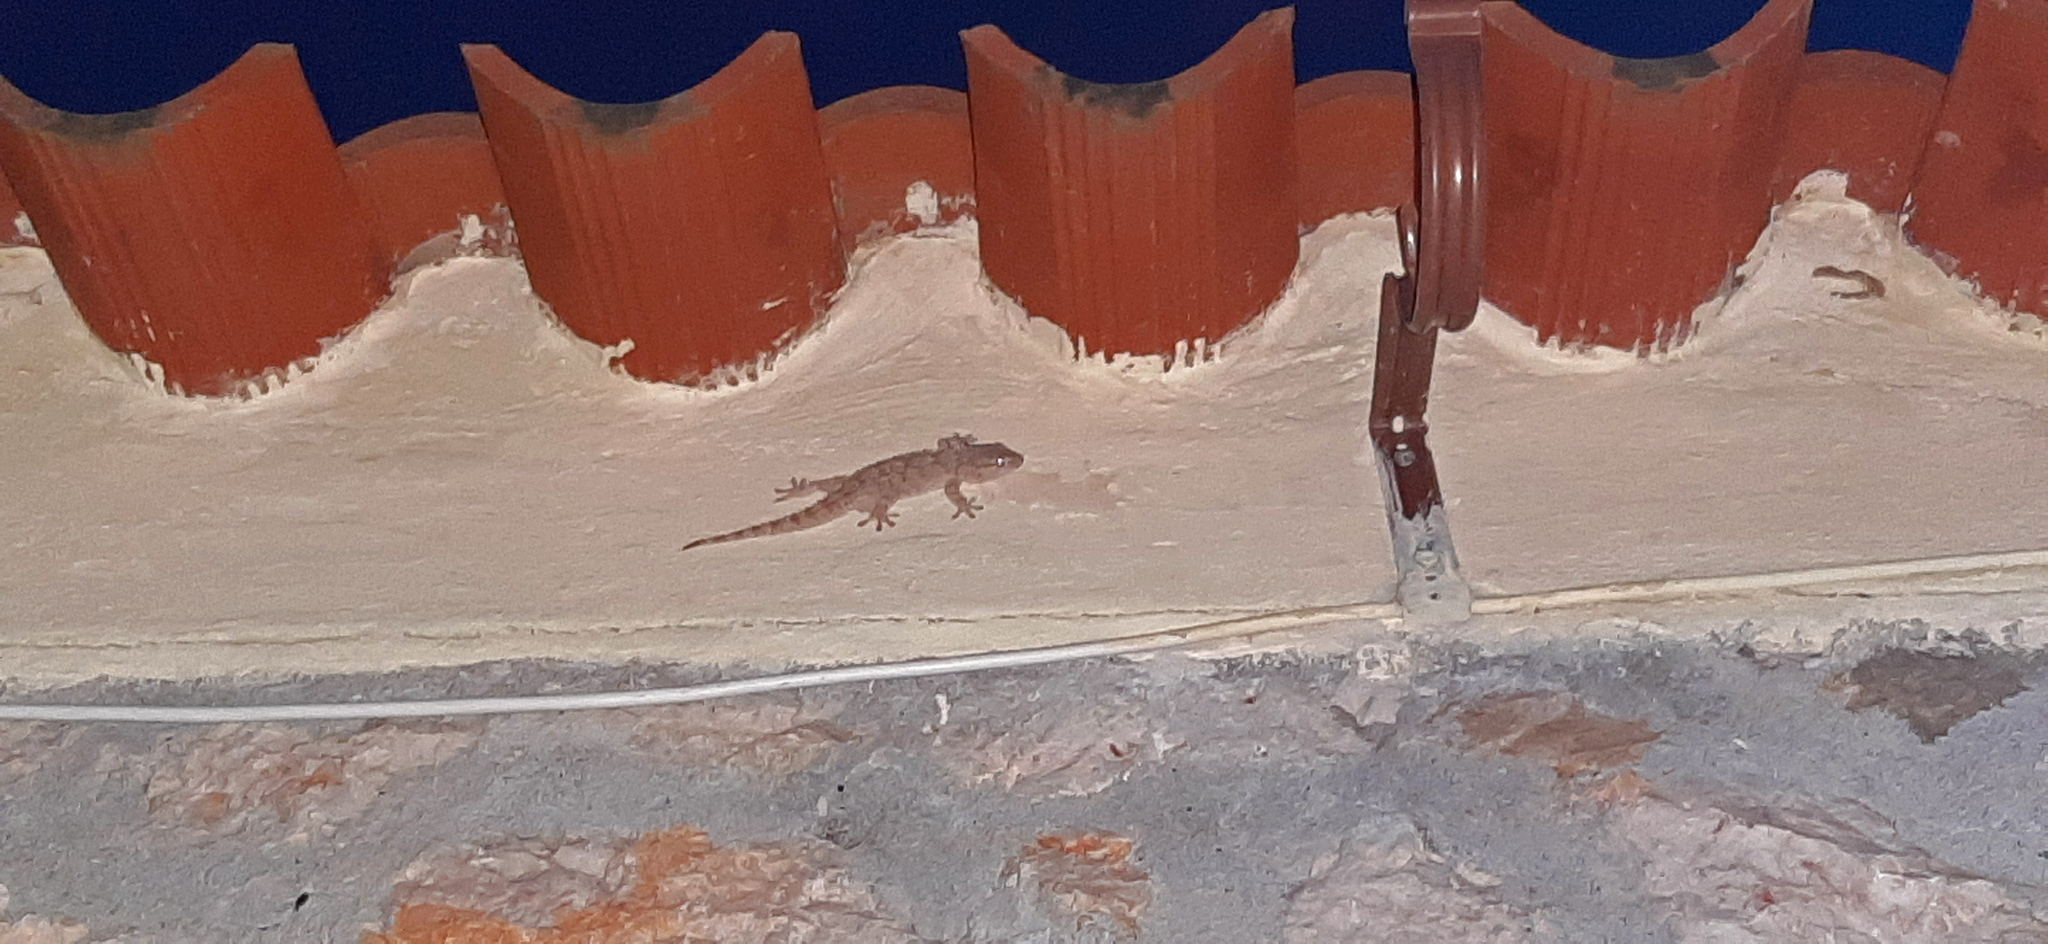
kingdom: Animalia
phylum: Chordata
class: Squamata
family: Phyllodactylidae
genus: Tarentola
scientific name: Tarentola mauritanica
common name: Moorish gecko
